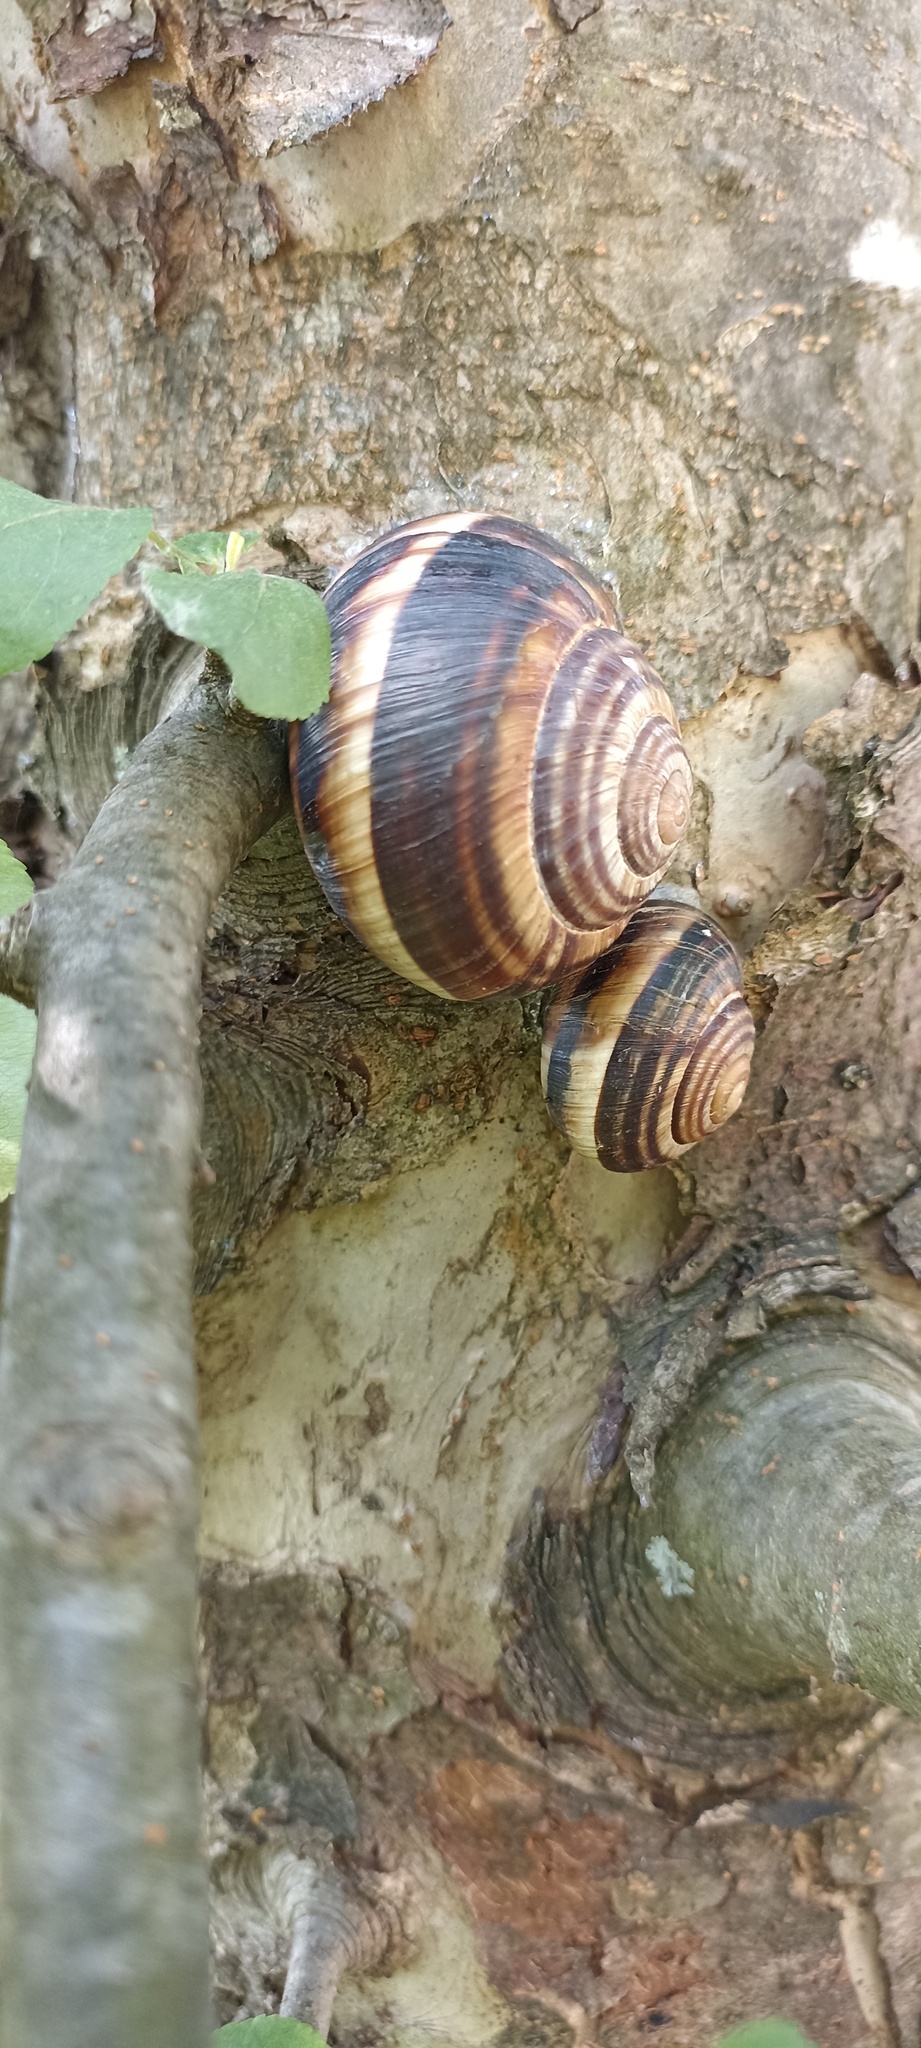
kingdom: Animalia
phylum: Mollusca
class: Gastropoda
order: Stylommatophora
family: Helicidae
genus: Helix
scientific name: Helix lucorum
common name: Turkish snail
